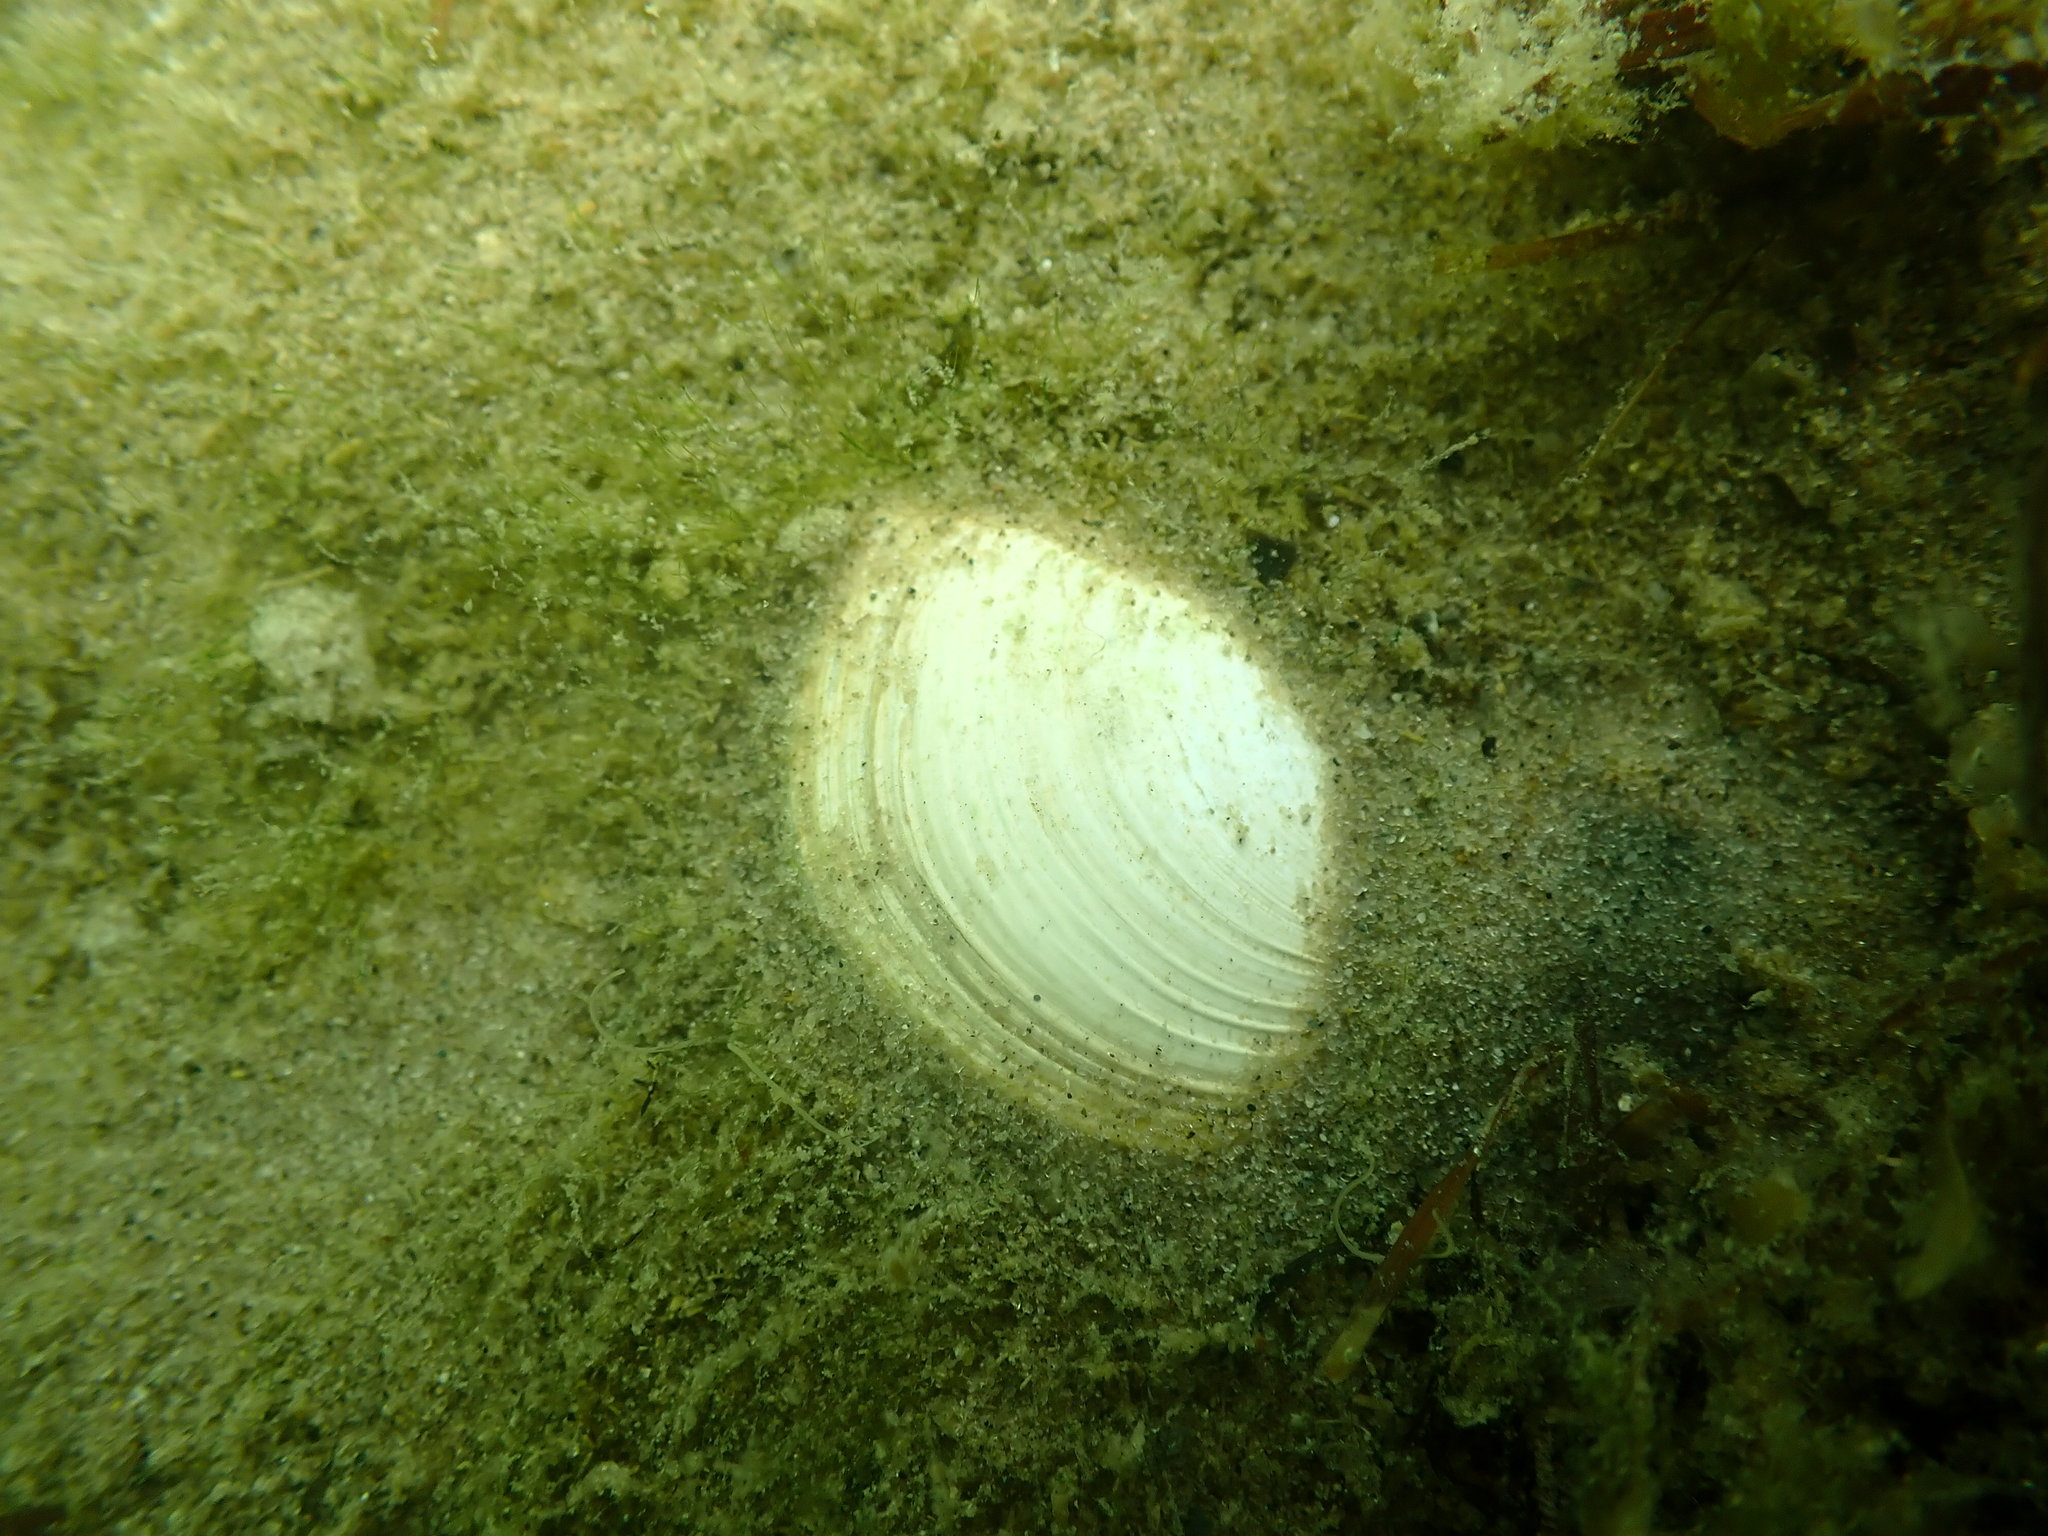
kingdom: Animalia
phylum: Mollusca
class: Bivalvia
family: Myochamidae
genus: Myadora
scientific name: Myadora striata
